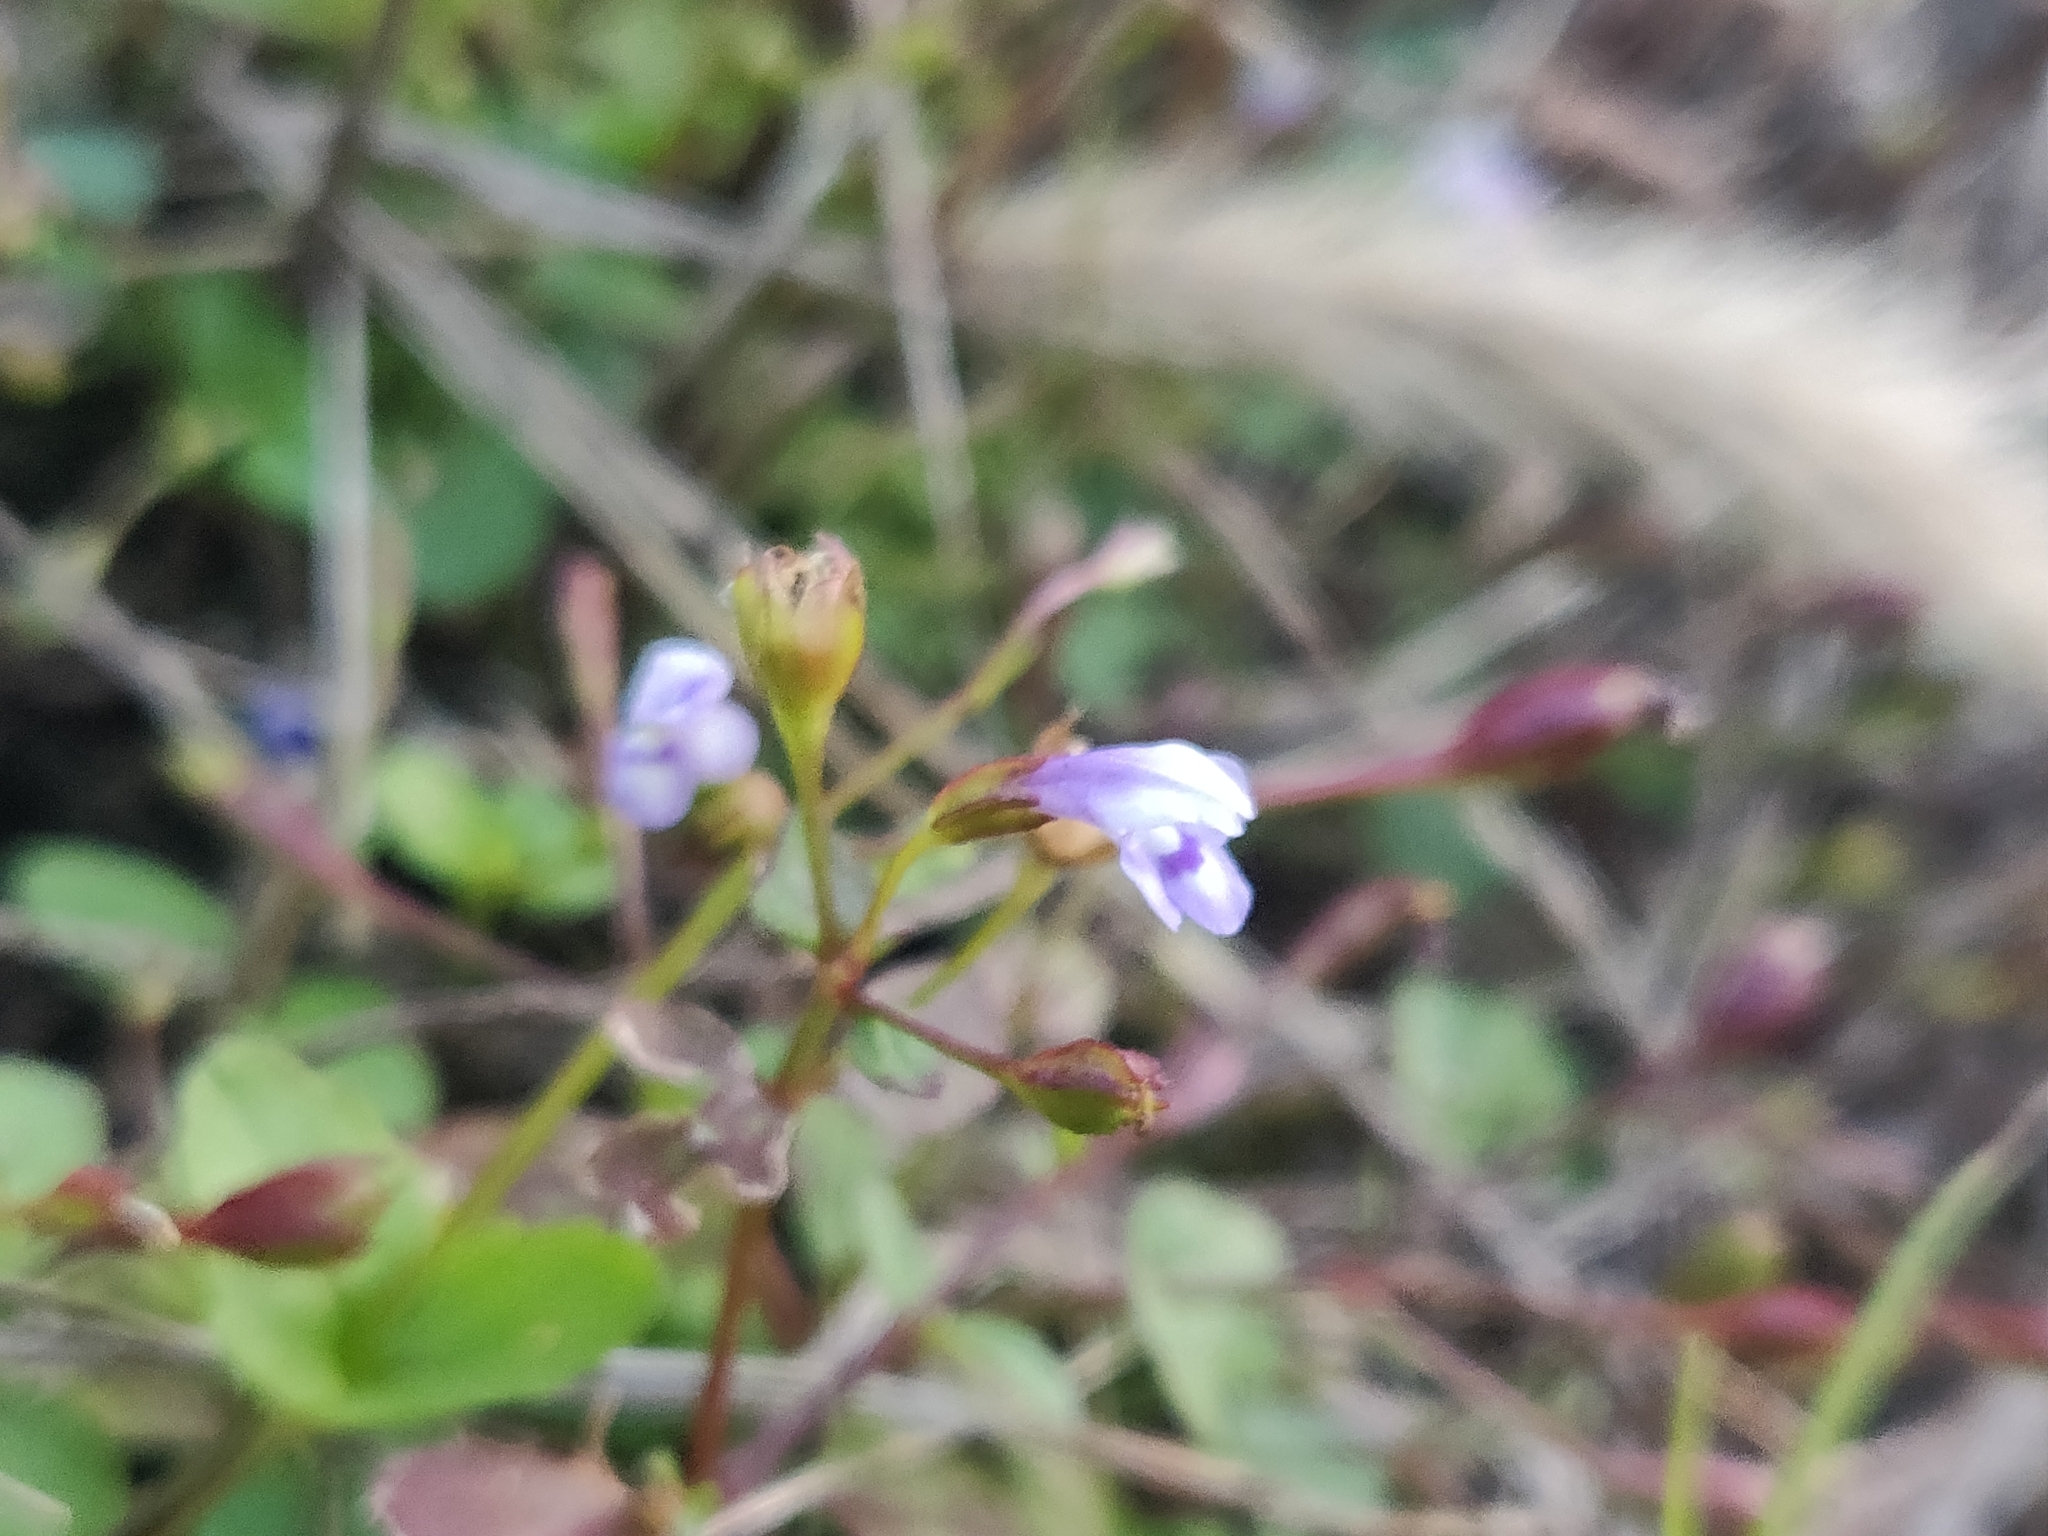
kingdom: Plantae
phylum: Tracheophyta
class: Magnoliopsida
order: Lamiales
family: Linderniaceae
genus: Torenia
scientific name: Torenia crustacea
